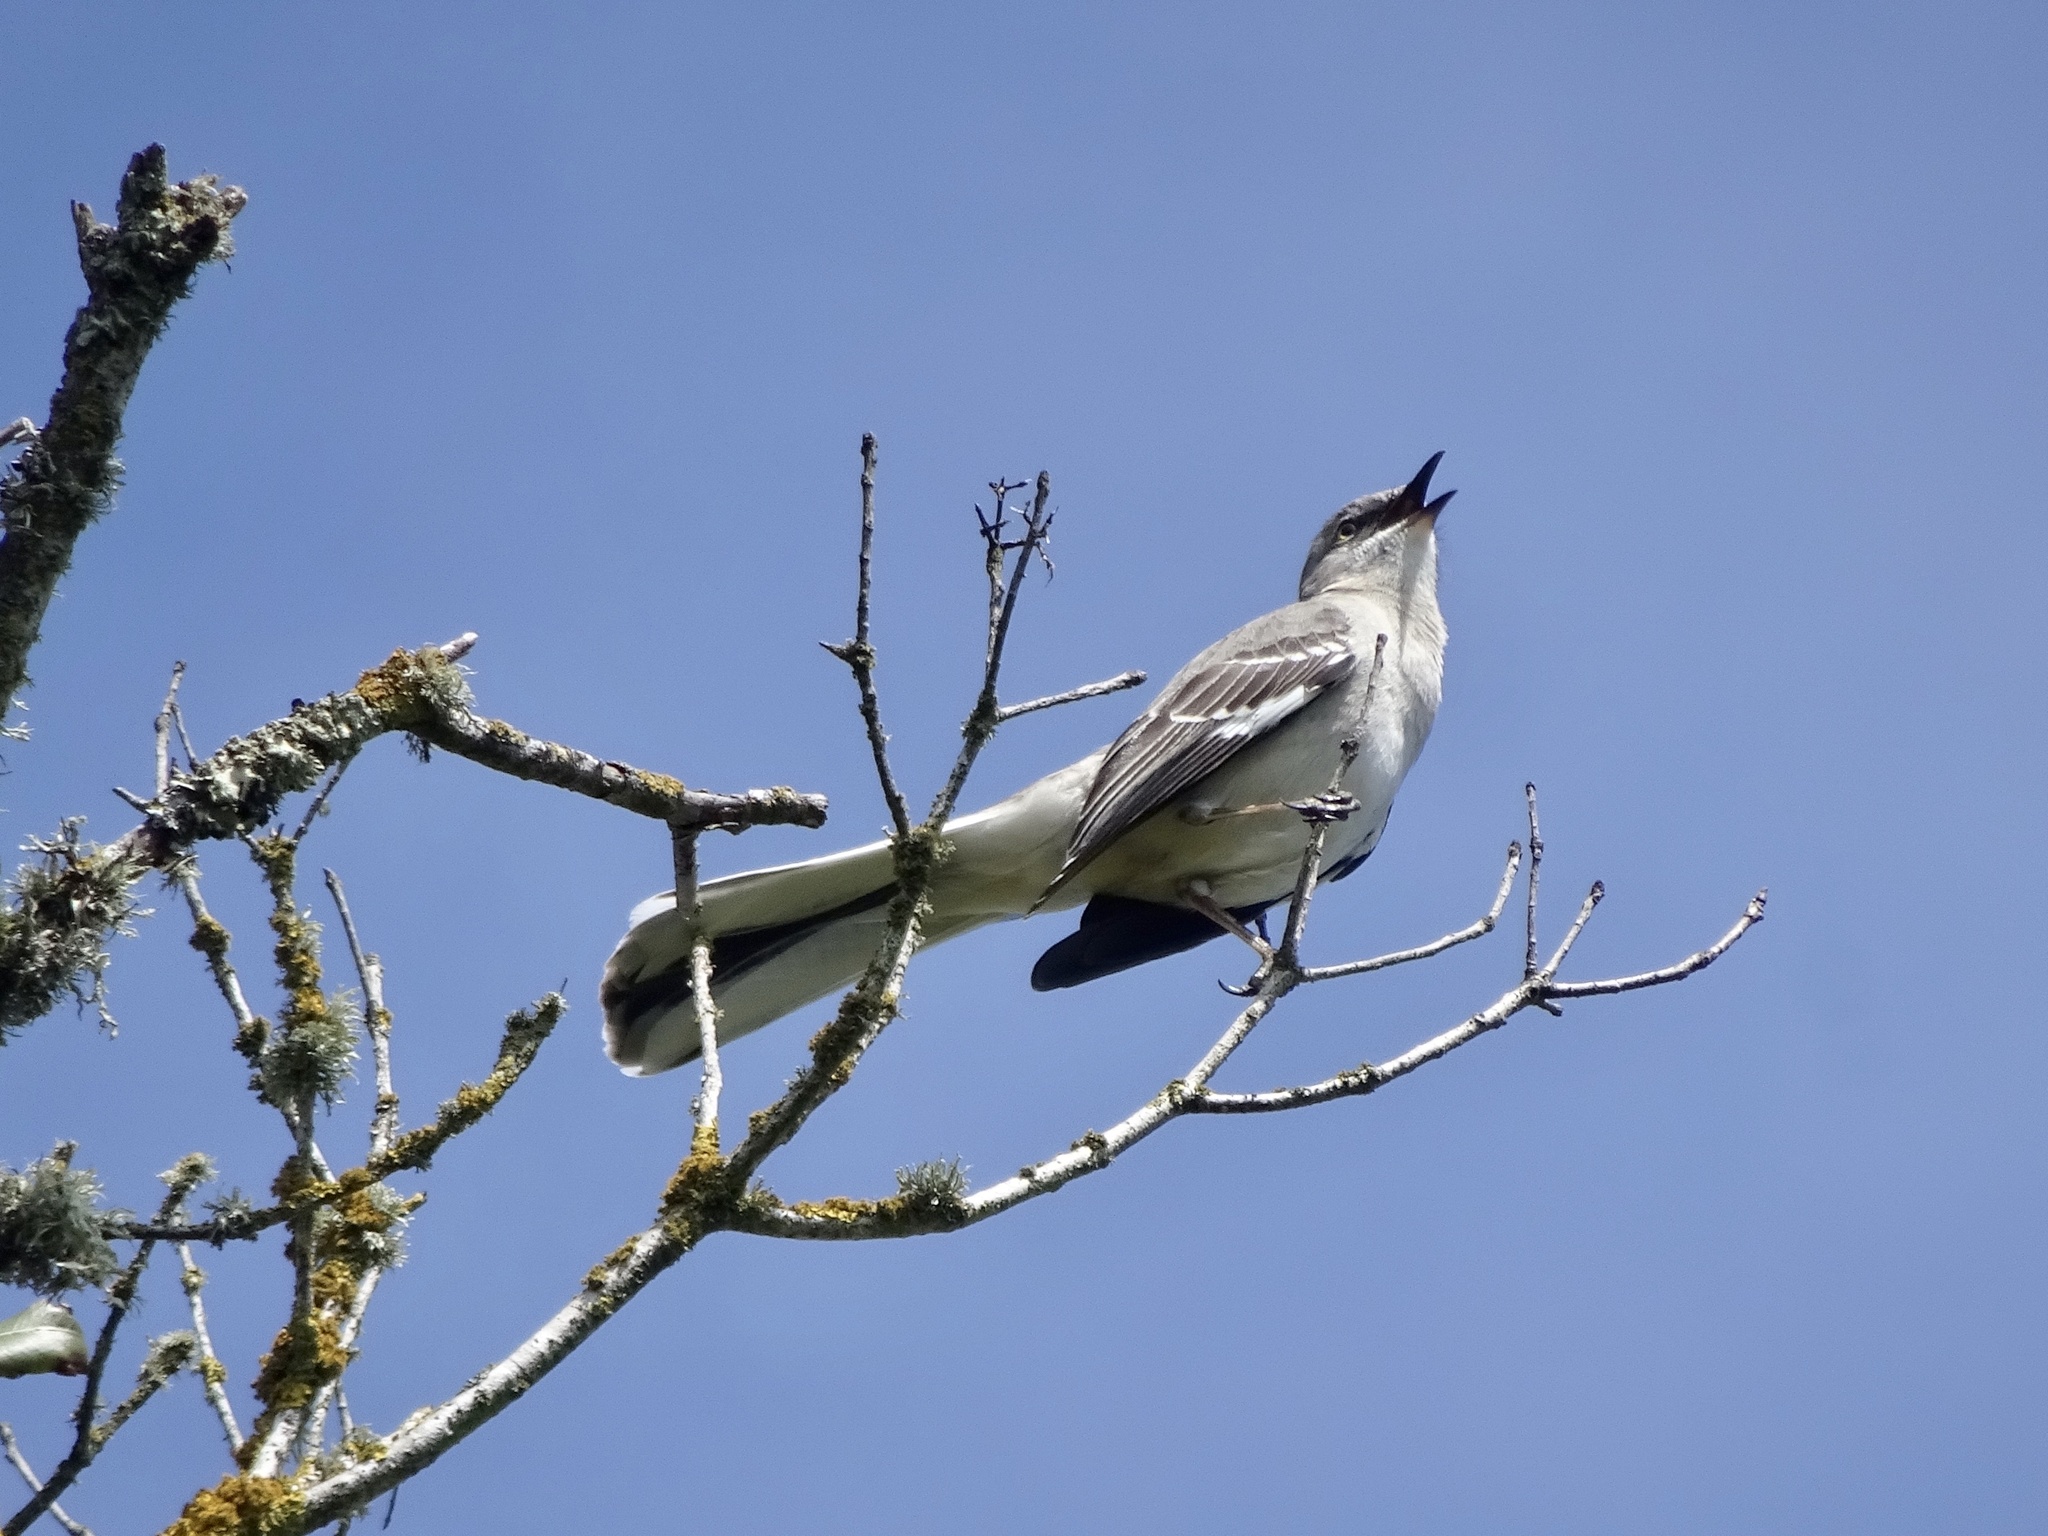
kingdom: Animalia
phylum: Chordata
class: Aves
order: Passeriformes
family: Mimidae
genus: Mimus
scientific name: Mimus polyglottos
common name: Northern mockingbird
